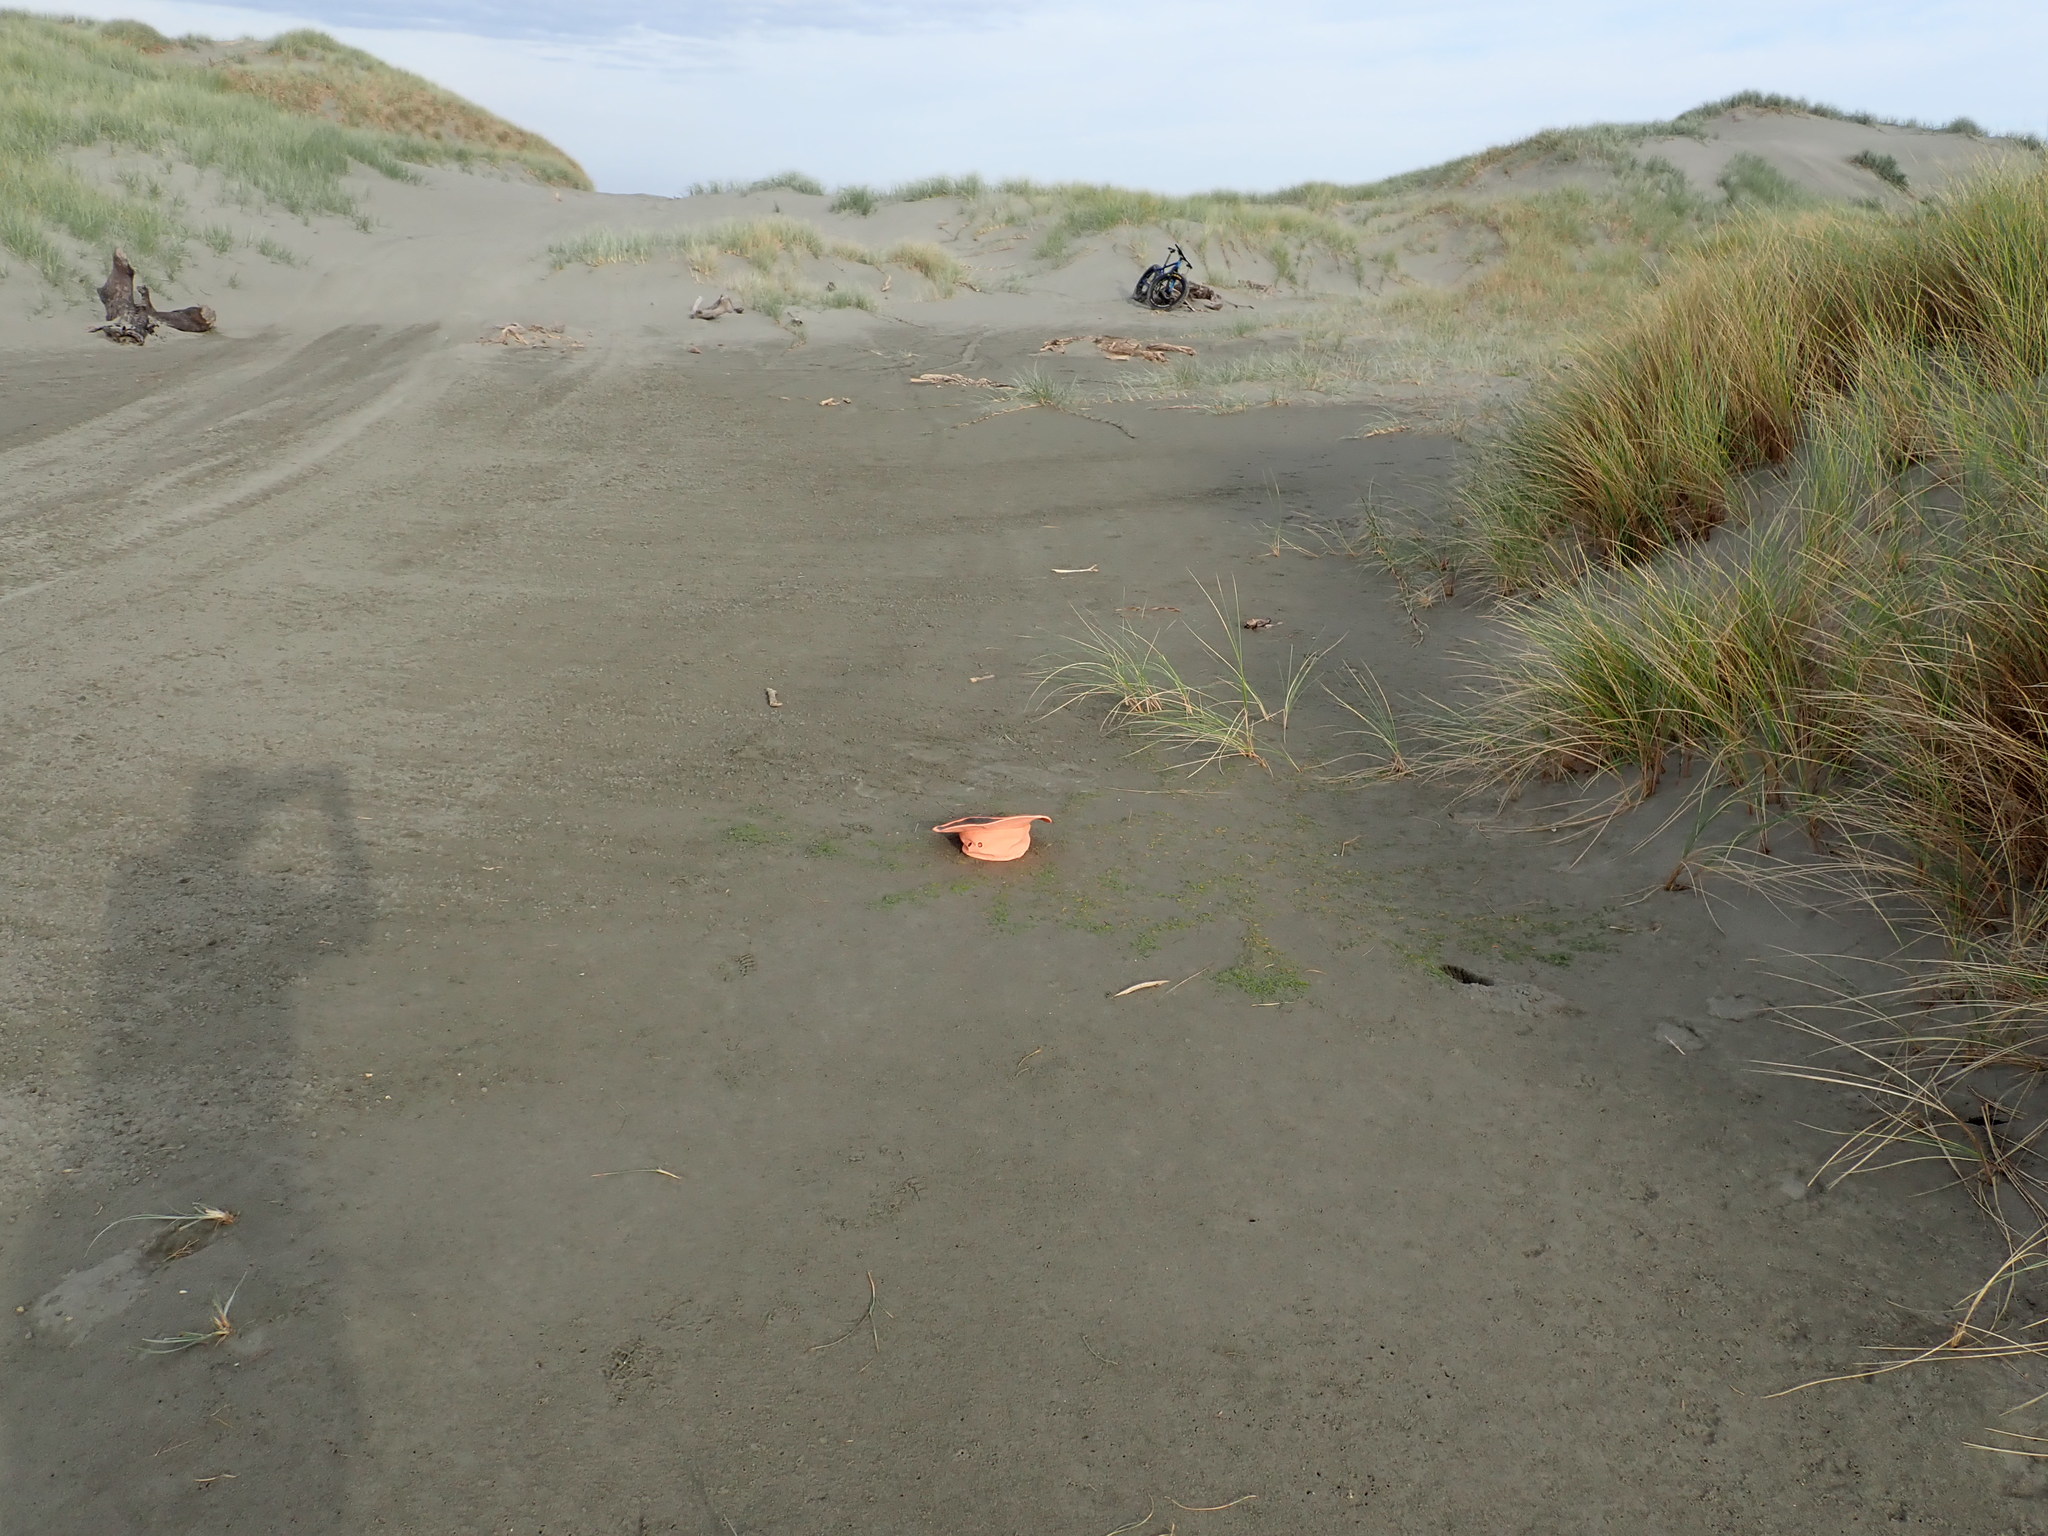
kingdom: Plantae
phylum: Tracheophyta
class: Magnoliopsida
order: Apiales
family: Apiaceae
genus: Lilaeopsis
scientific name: Lilaeopsis novae-zelandiae
